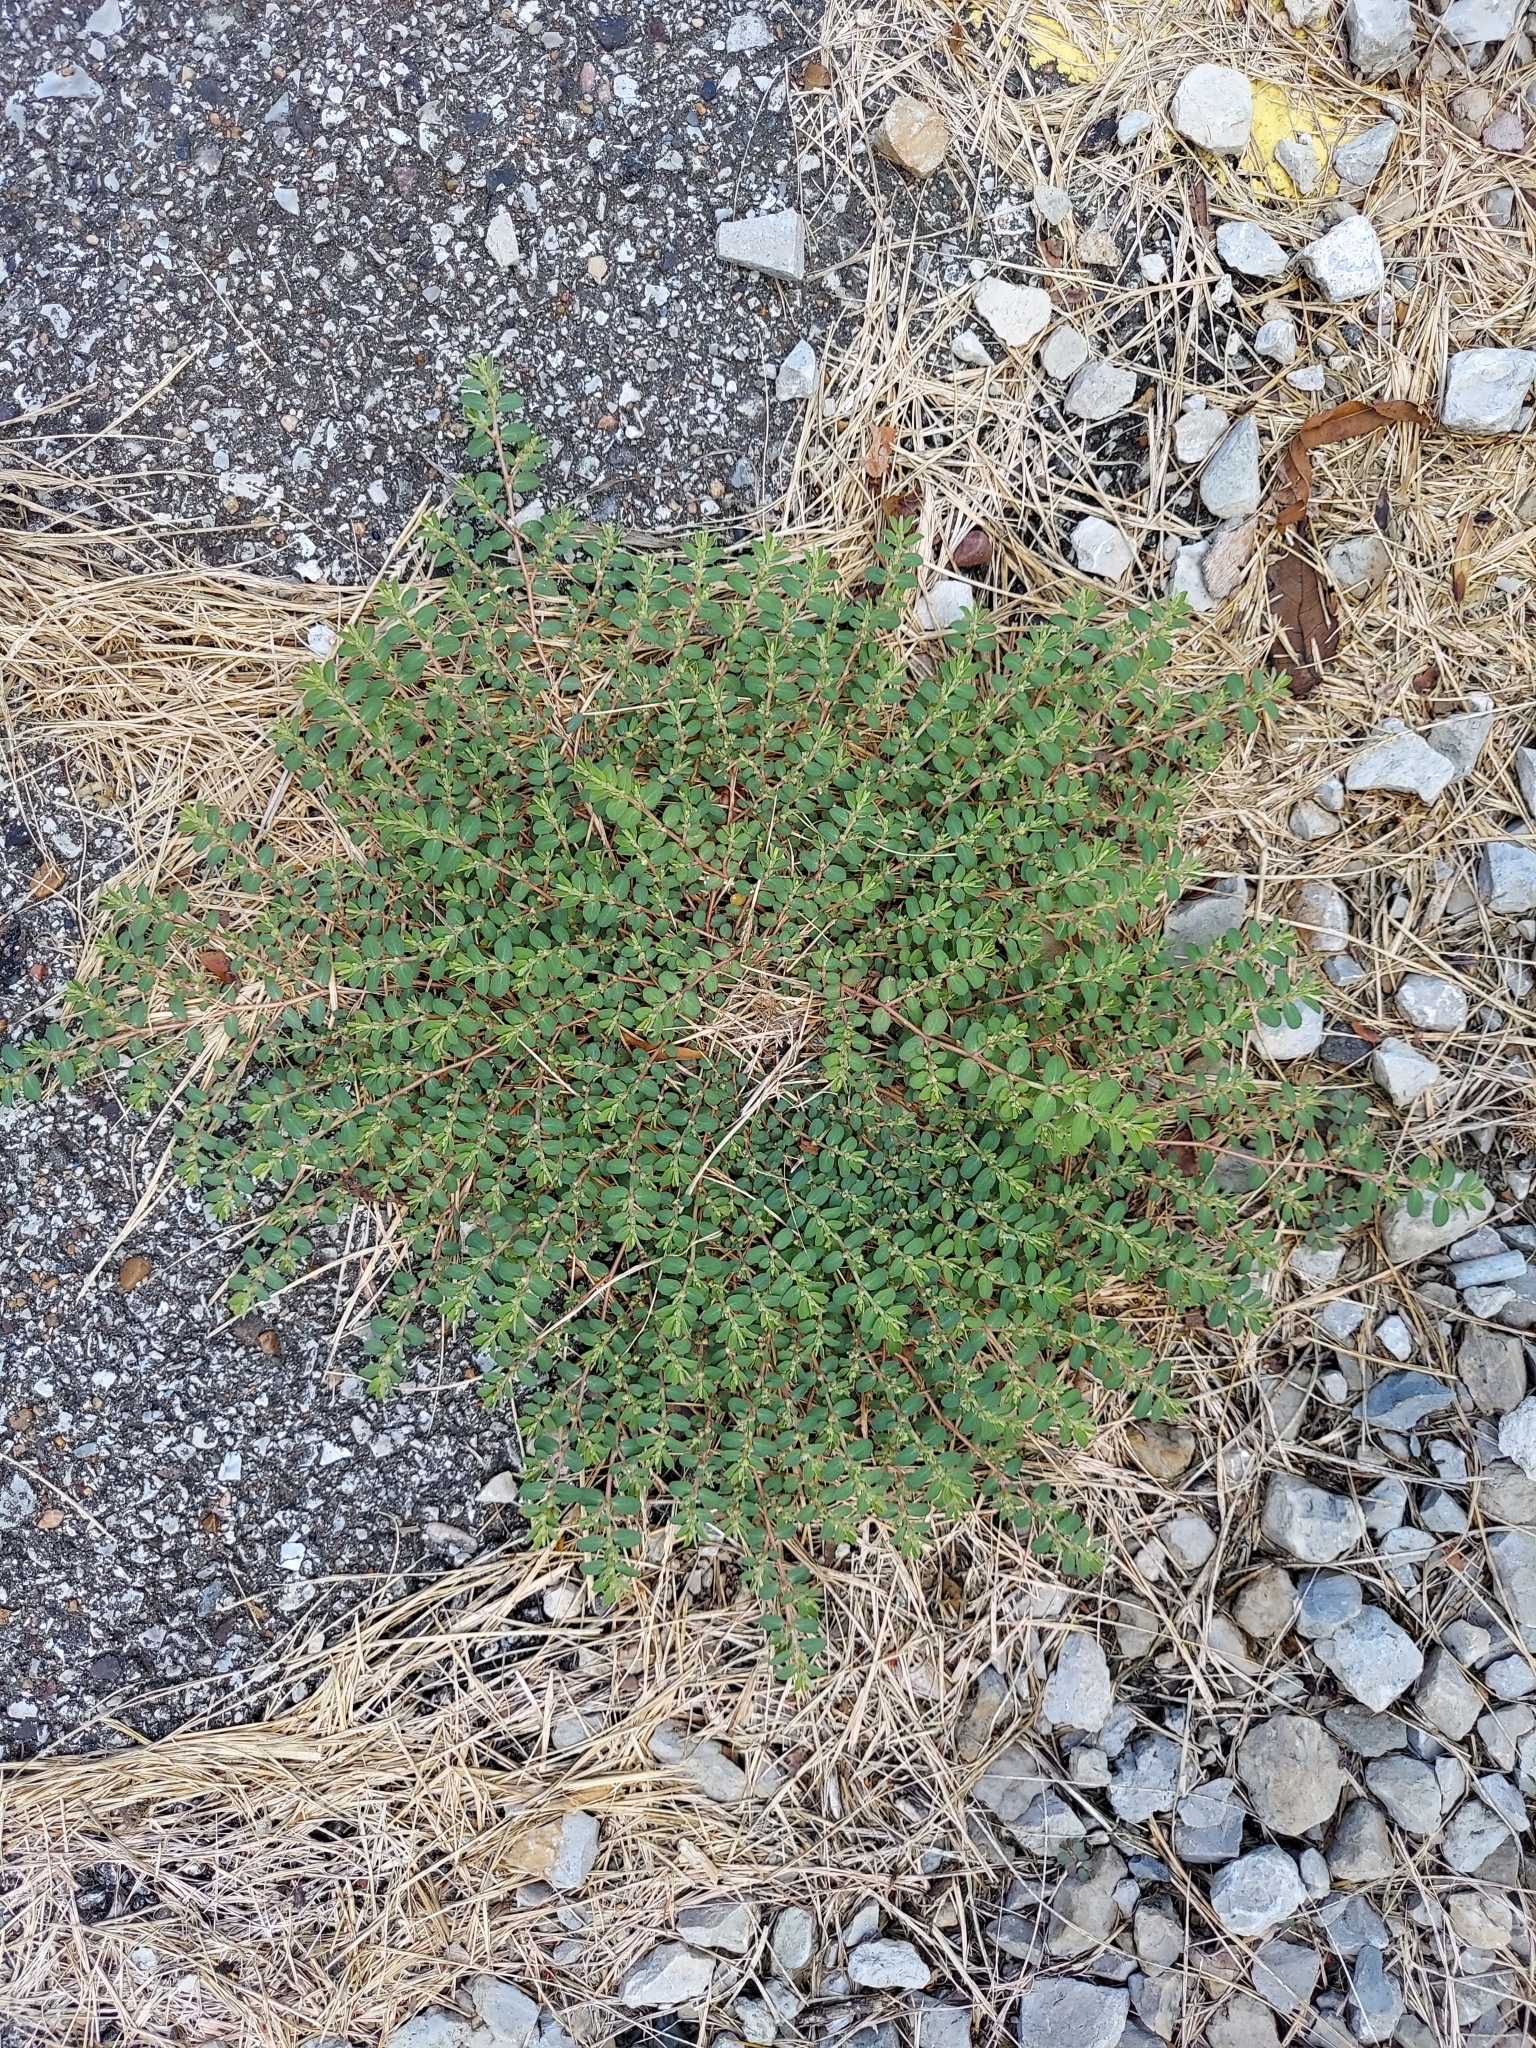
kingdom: Plantae
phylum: Tracheophyta
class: Magnoliopsida
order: Malpighiales
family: Euphorbiaceae
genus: Euphorbia
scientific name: Euphorbia prostrata
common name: Prostrate sandmat
